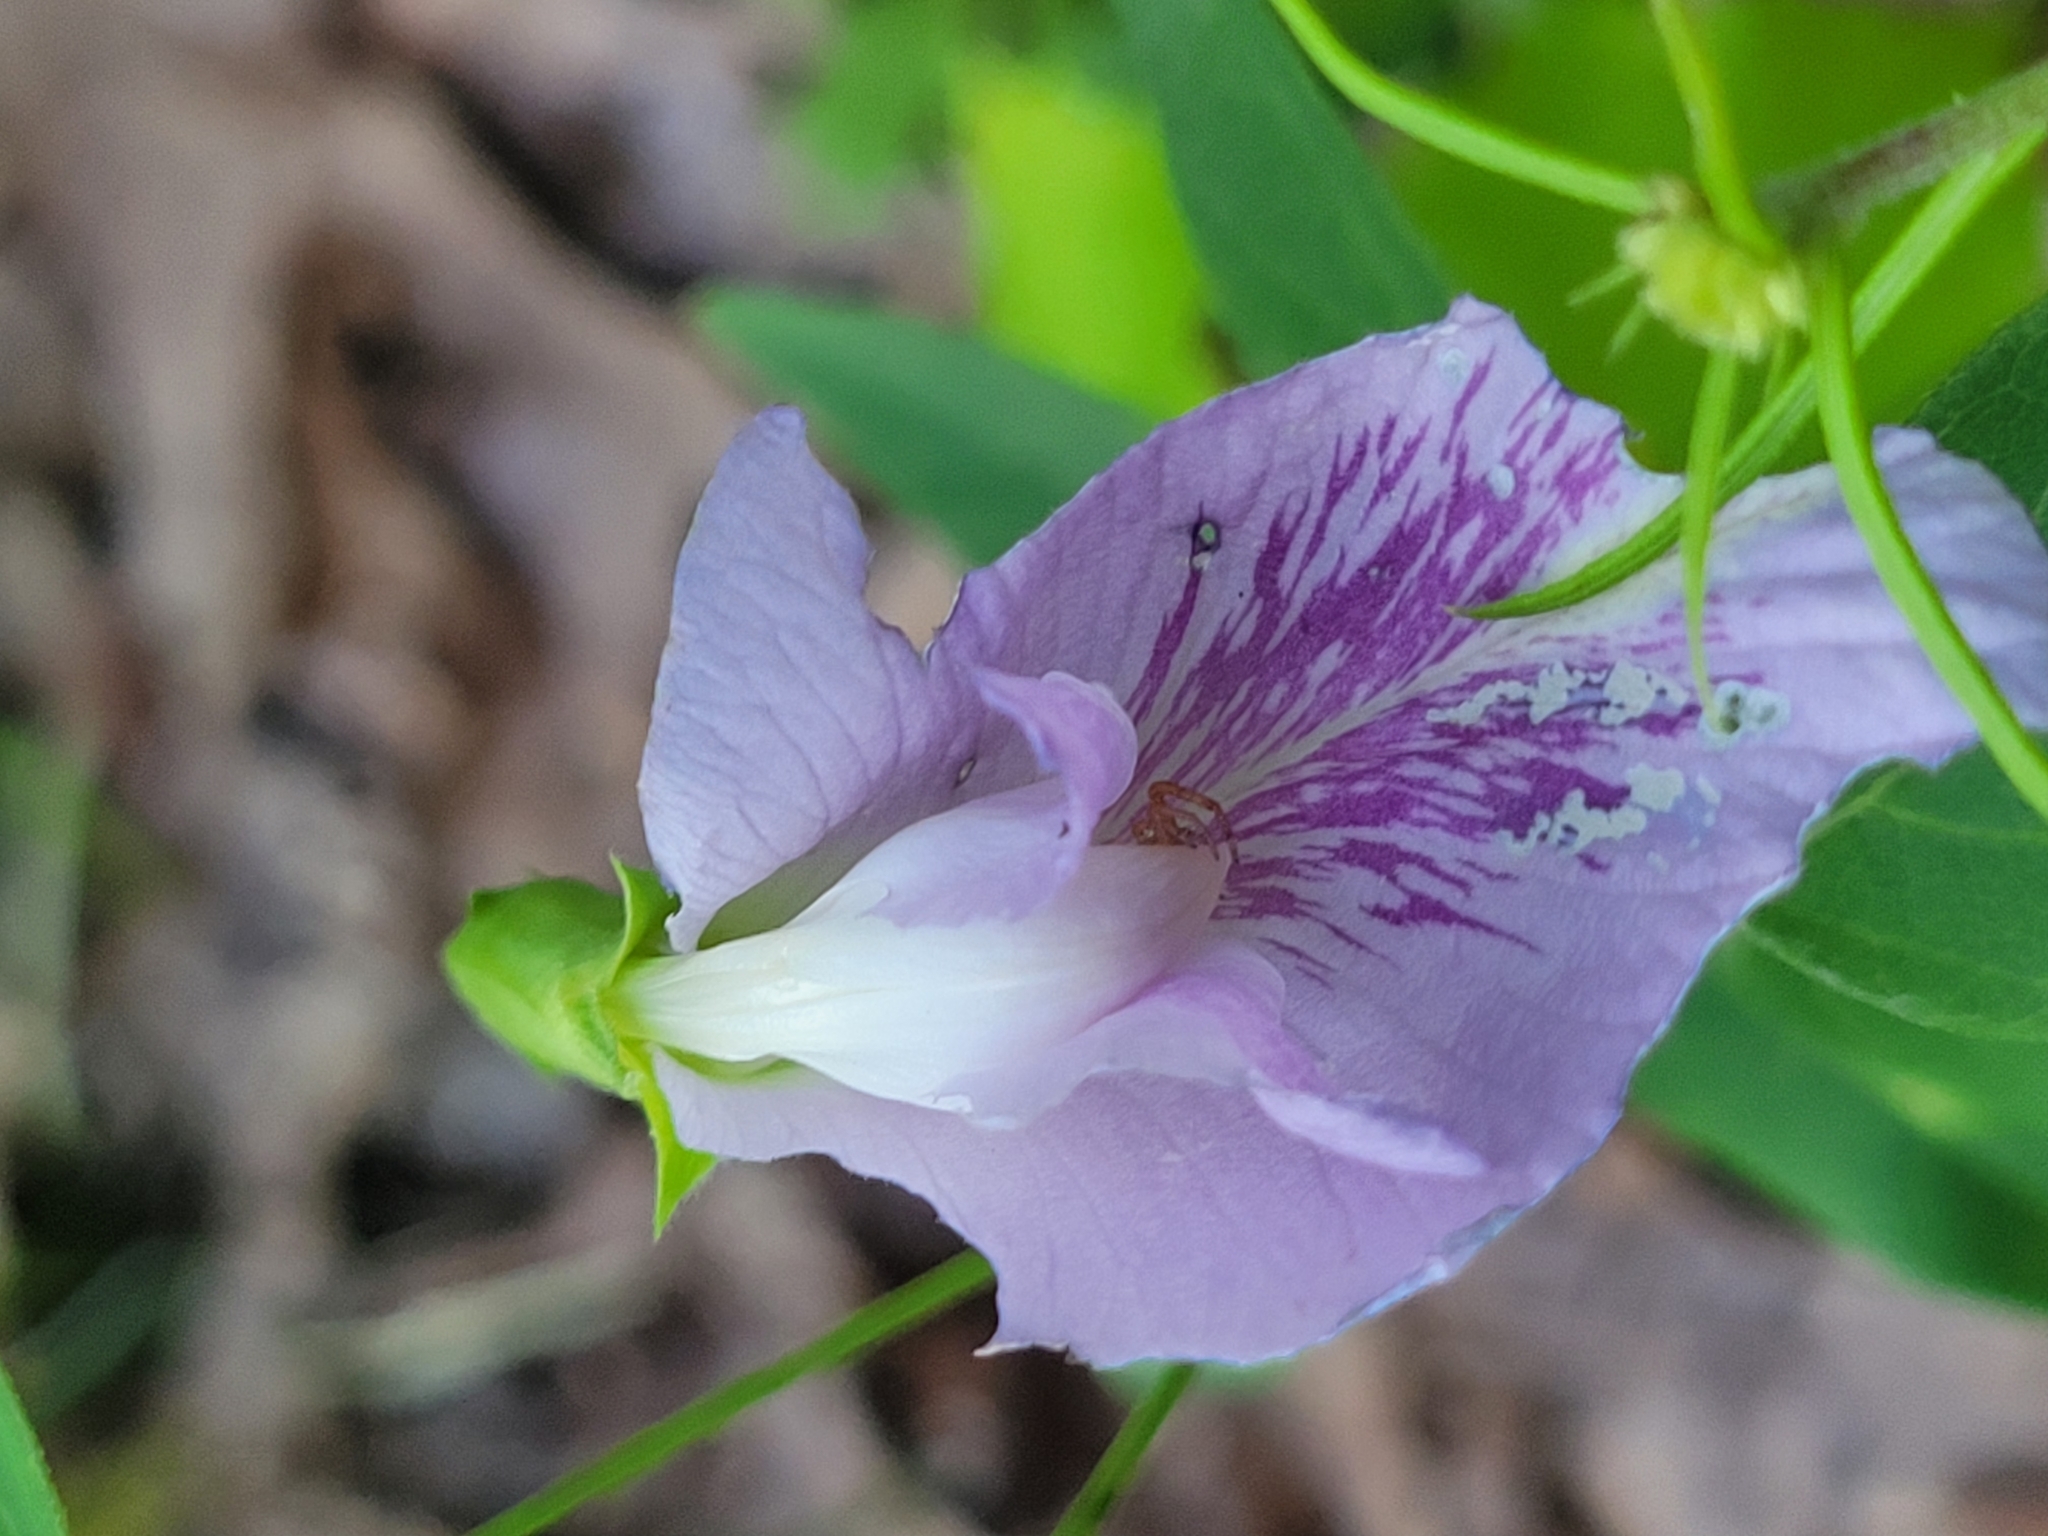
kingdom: Plantae
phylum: Tracheophyta
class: Magnoliopsida
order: Fabales
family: Fabaceae
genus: Clitoria
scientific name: Clitoria mariana
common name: Butterfly-pea
